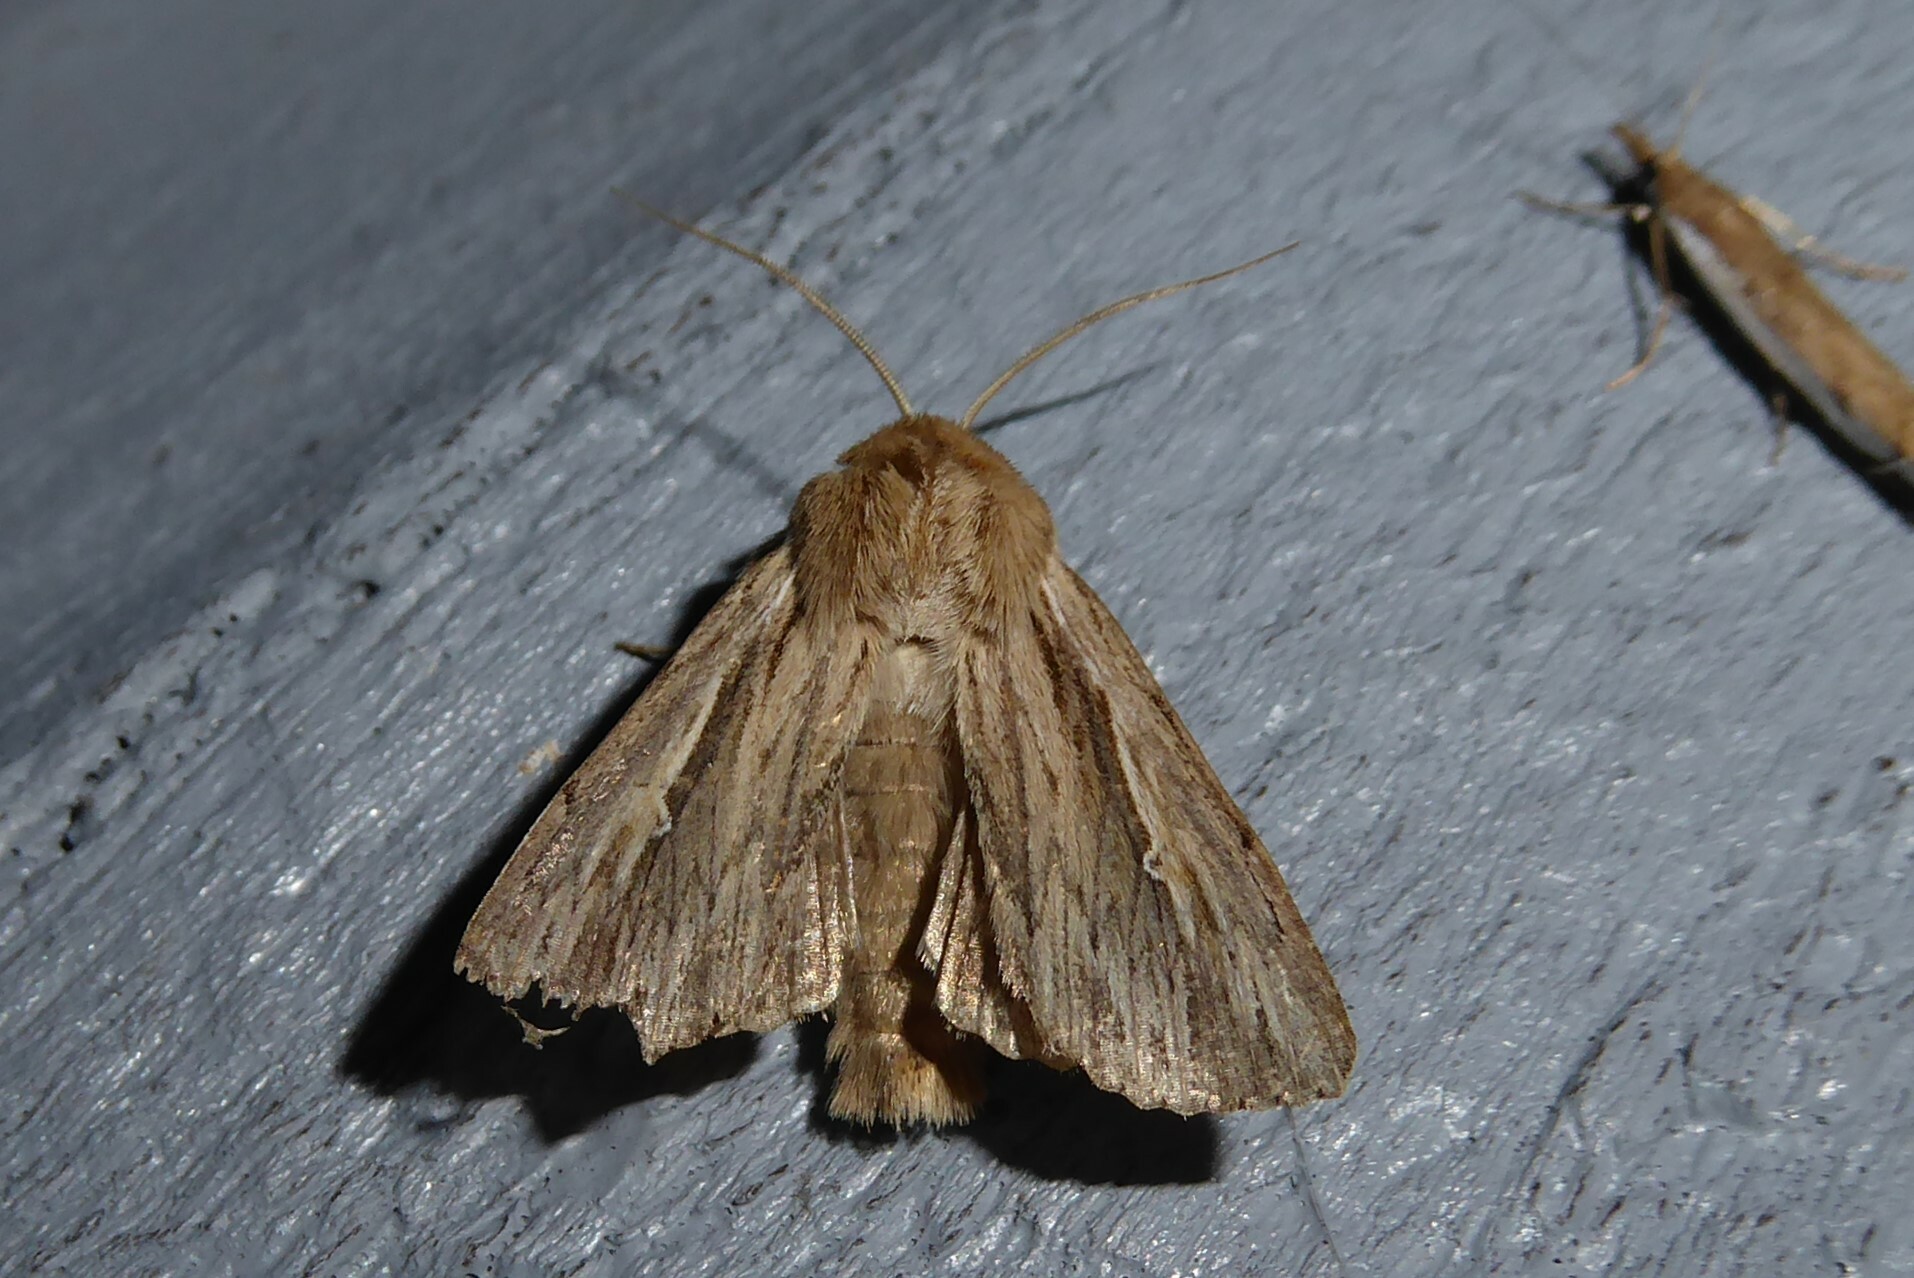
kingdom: Animalia
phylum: Arthropoda
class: Insecta
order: Lepidoptera
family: Noctuidae
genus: Persectania
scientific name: Persectania aversa
